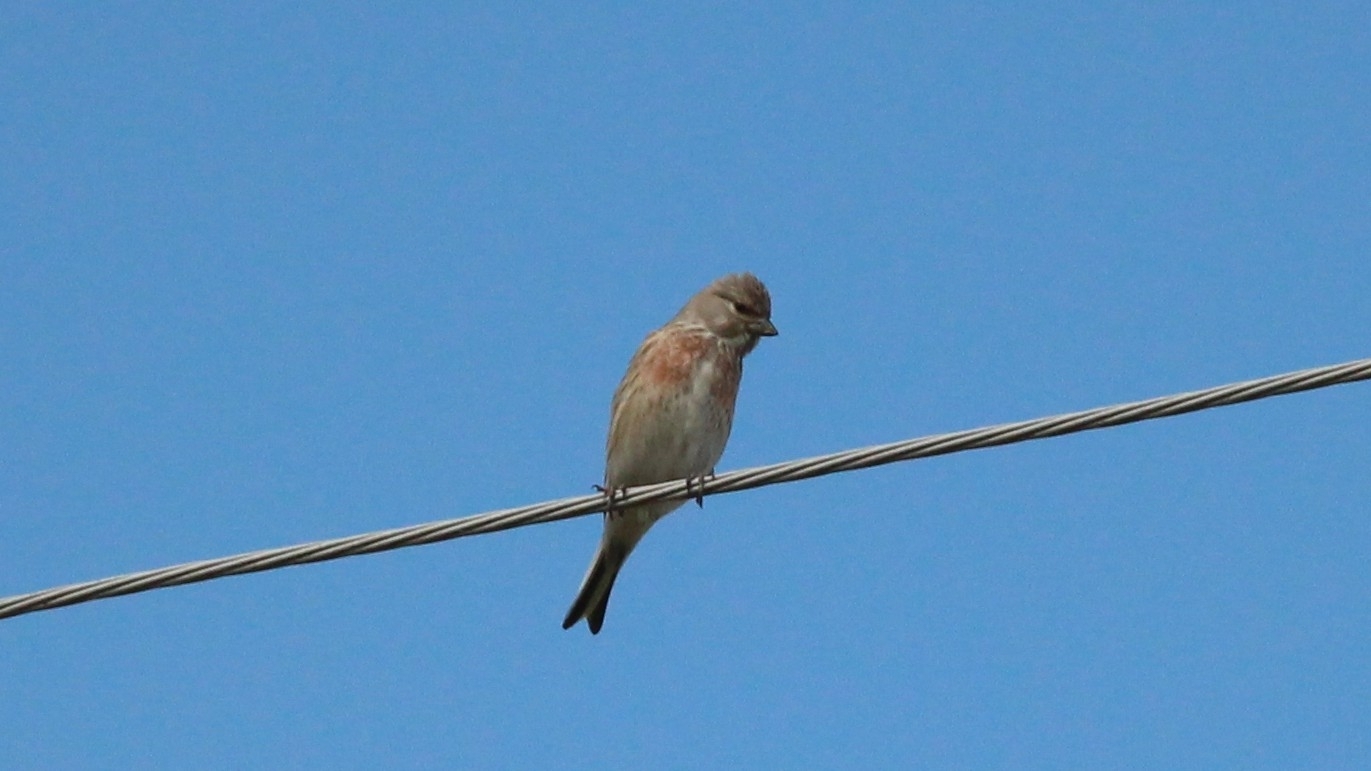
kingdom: Animalia
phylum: Chordata
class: Aves
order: Passeriformes
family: Fringillidae
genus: Linaria
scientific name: Linaria cannabina
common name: Common linnet
